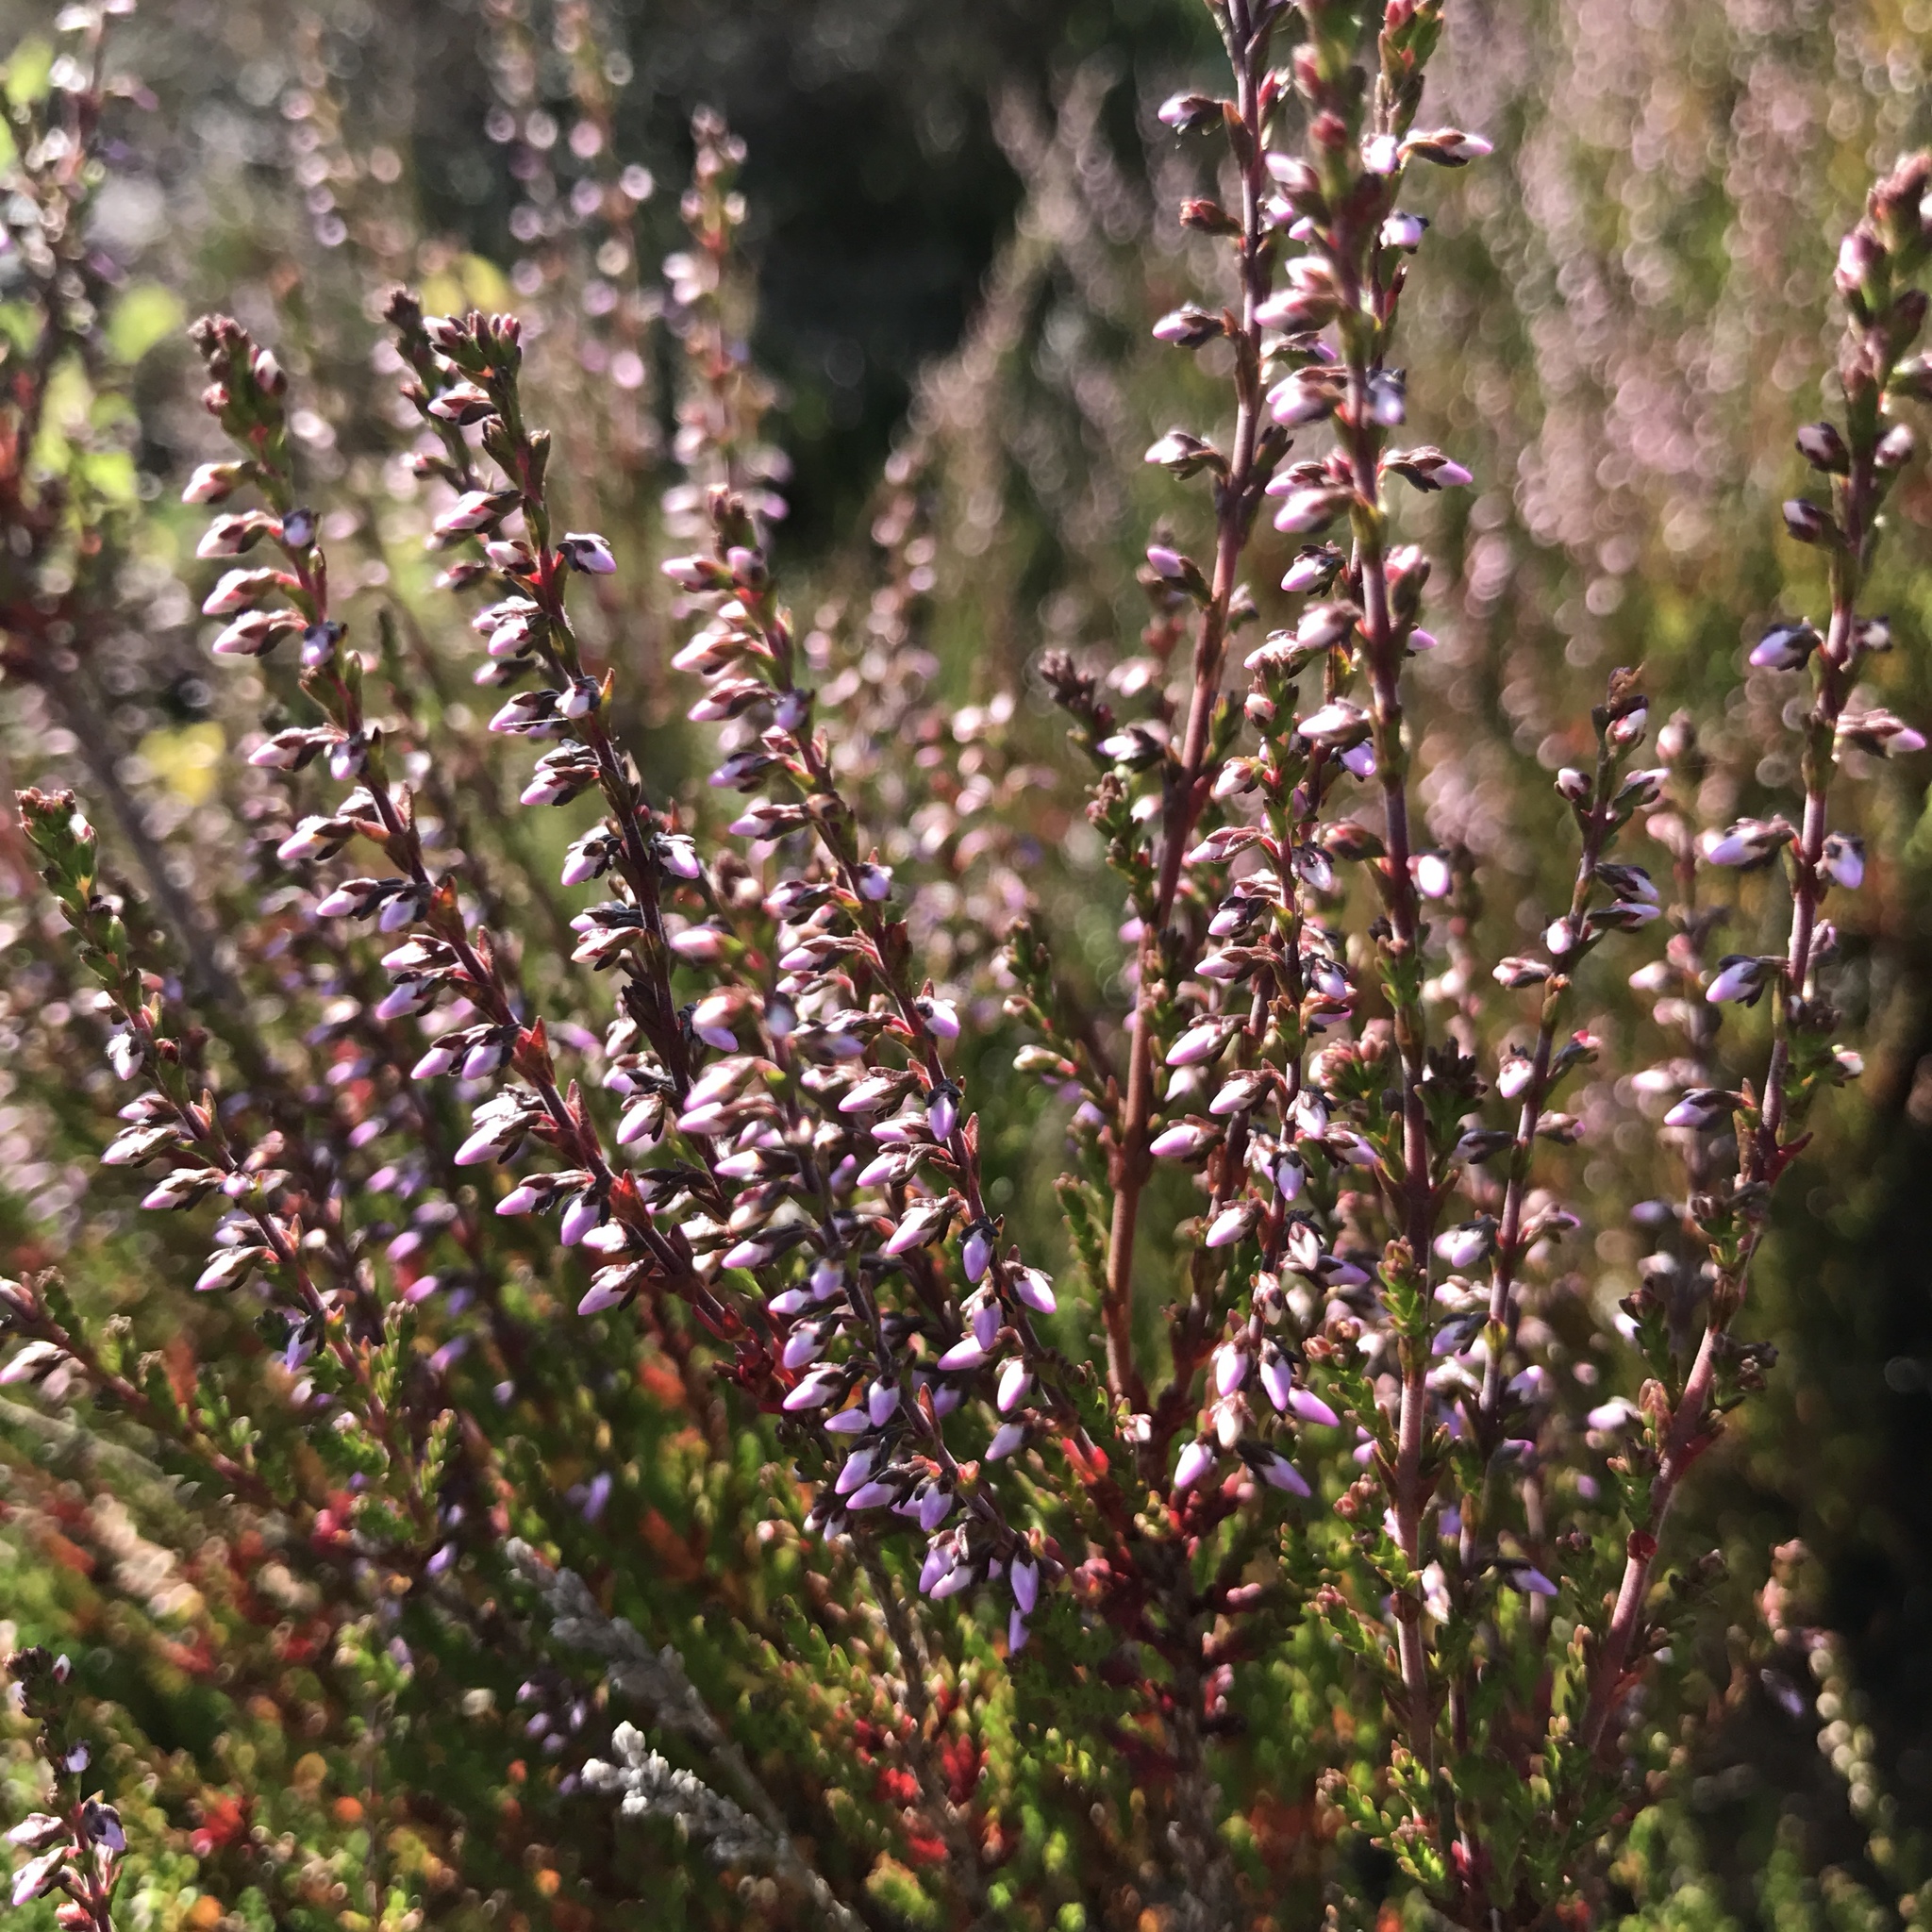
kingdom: Plantae
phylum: Tracheophyta
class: Magnoliopsida
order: Ericales
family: Ericaceae
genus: Calluna
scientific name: Calluna vulgaris
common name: Heather
